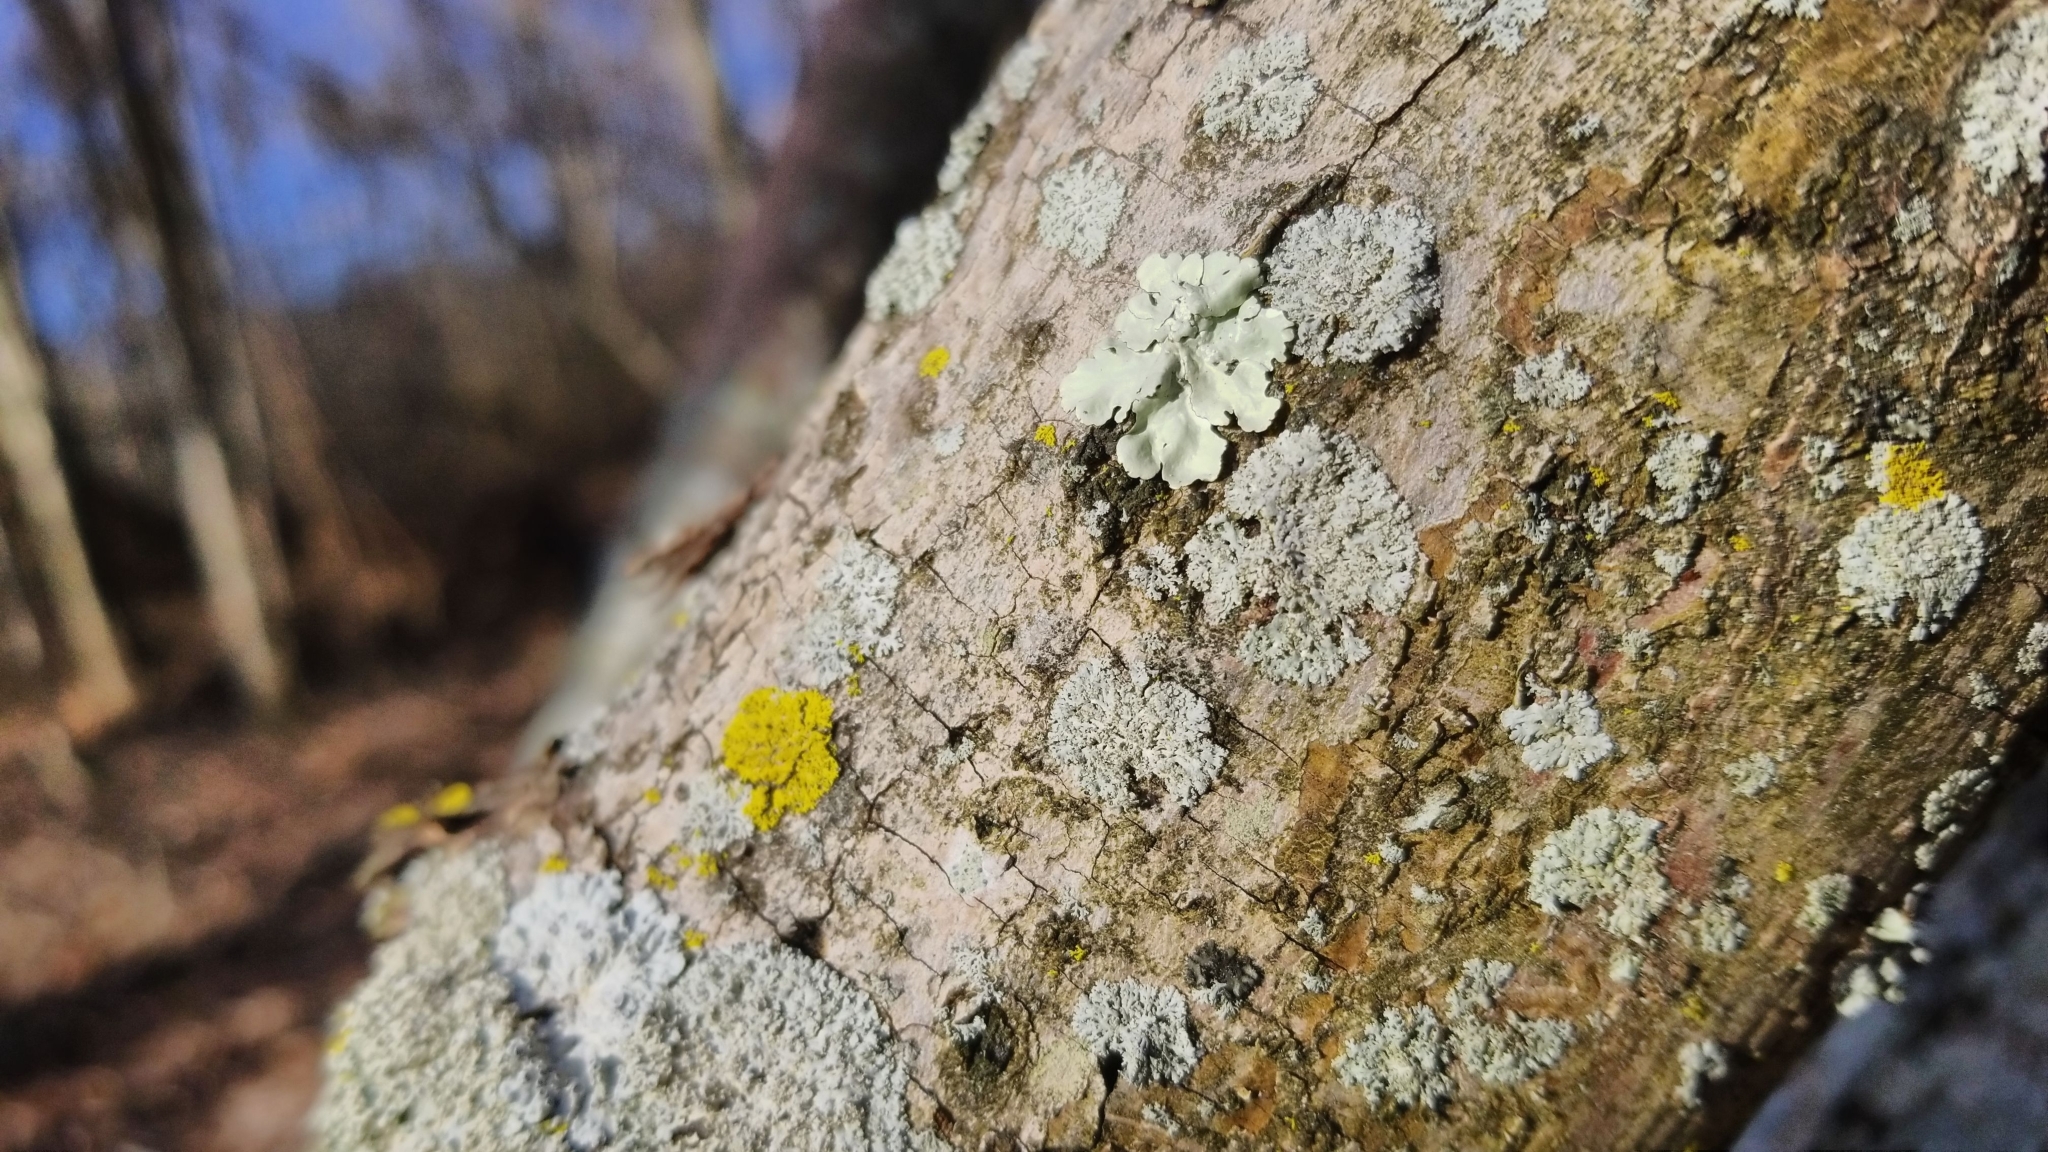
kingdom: Fungi
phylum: Ascomycota
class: Lecanoromycetes
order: Caliciales
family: Physciaceae
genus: Physcia
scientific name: Physcia millegrana
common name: Rosette lichen
